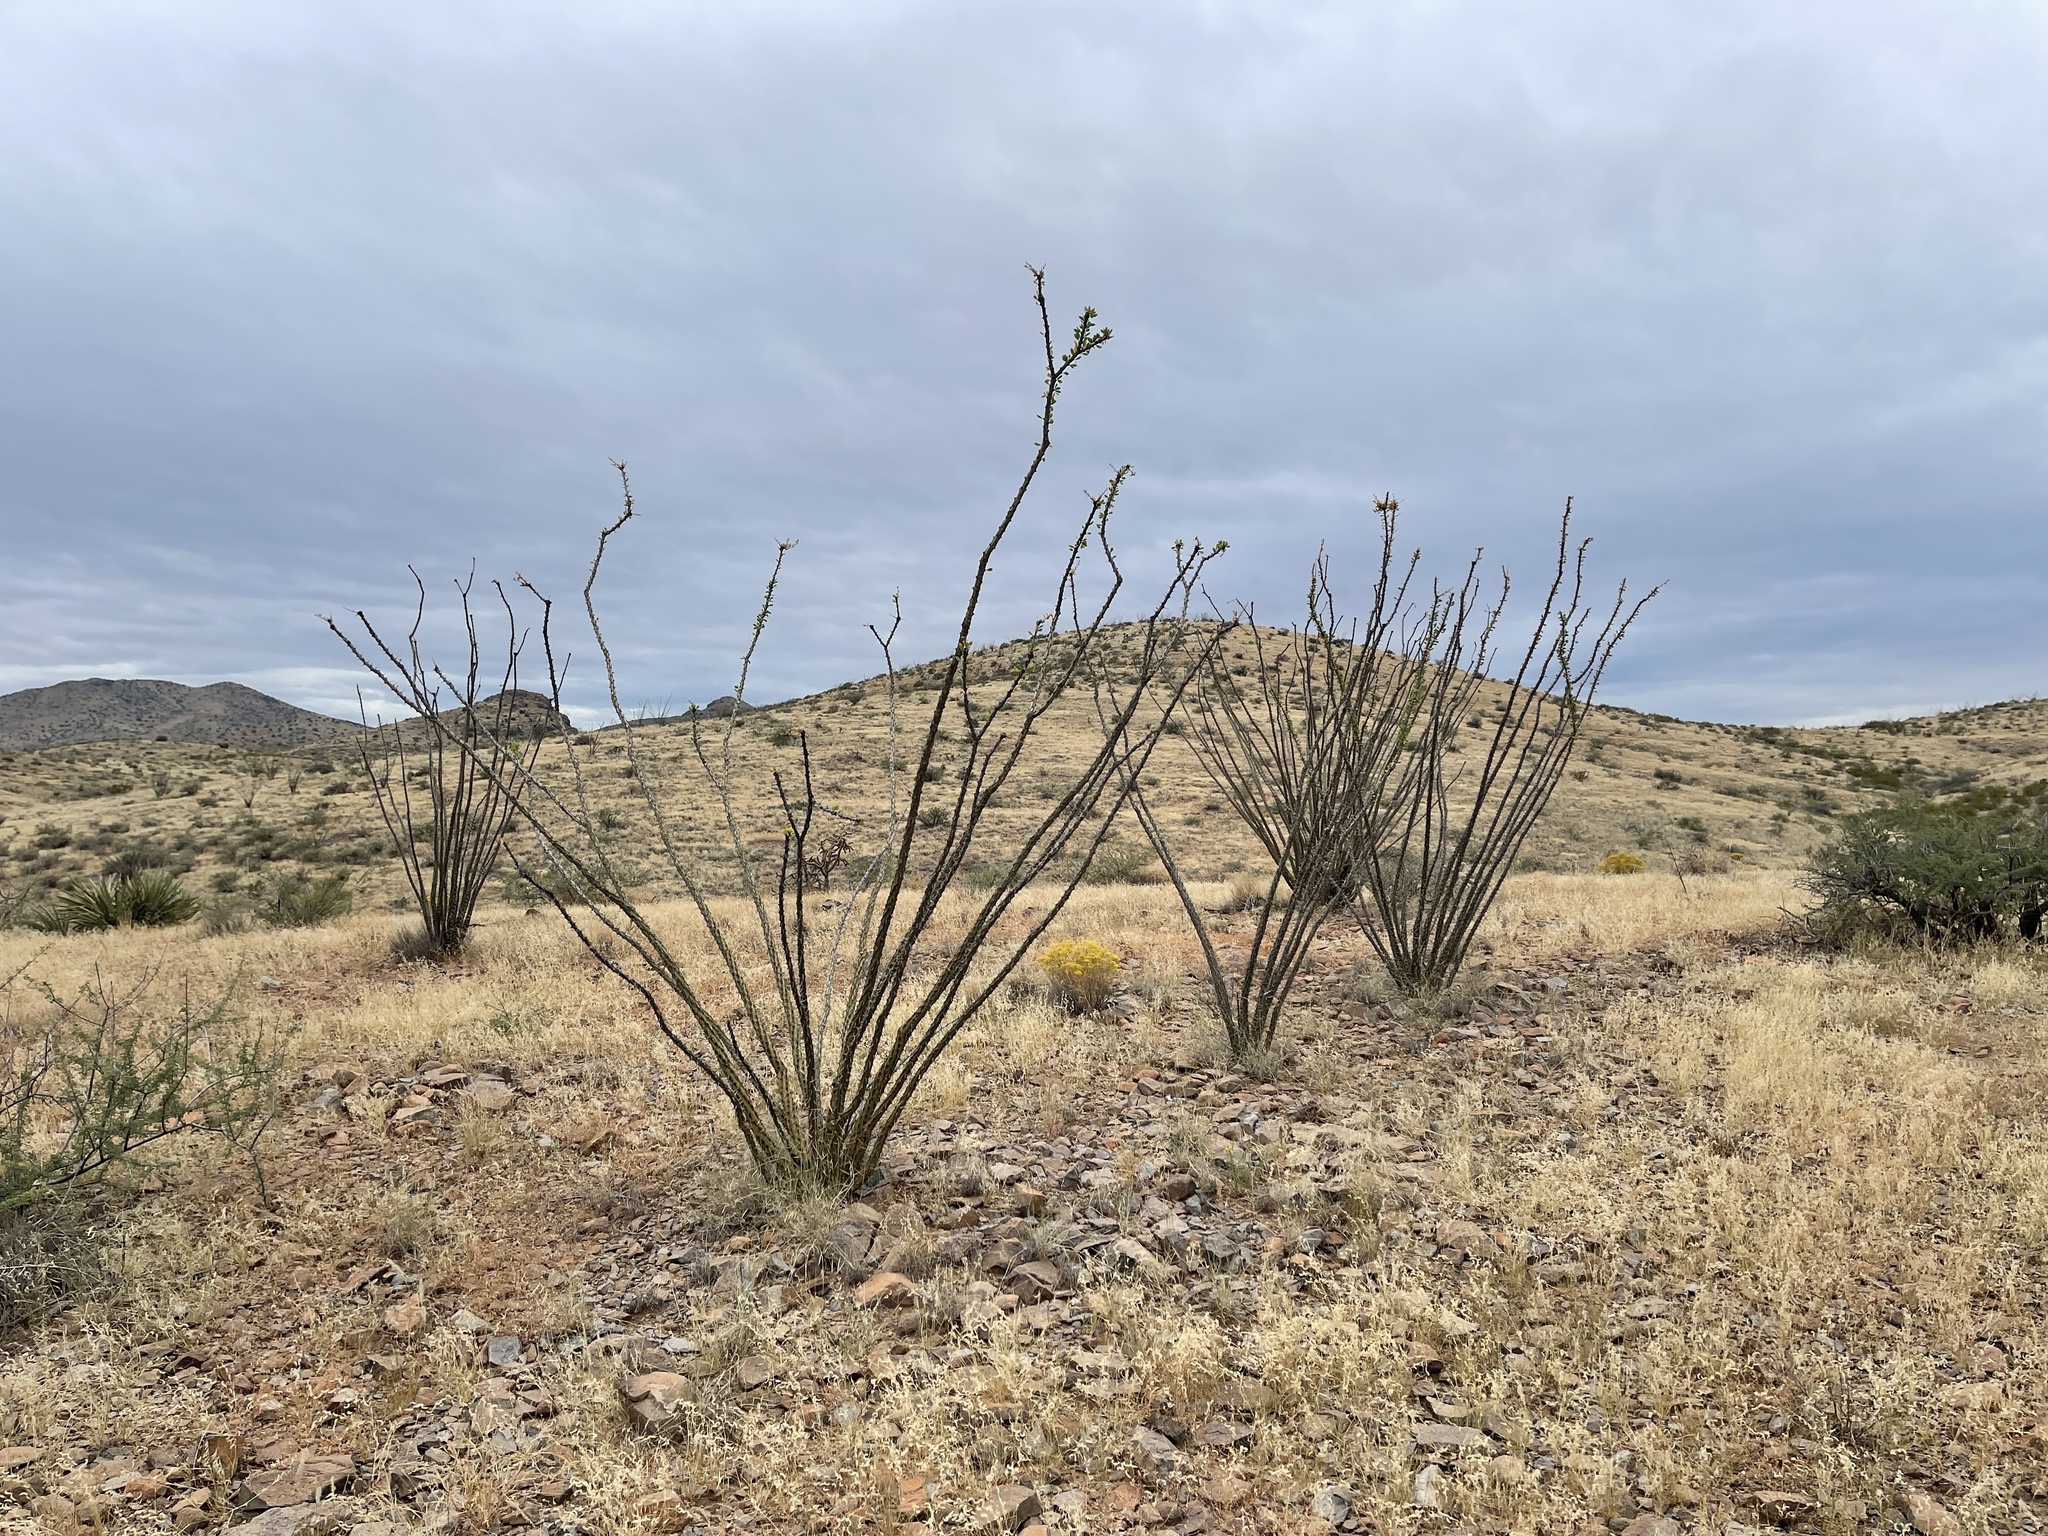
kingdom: Plantae
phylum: Tracheophyta
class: Magnoliopsida
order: Ericales
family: Fouquieriaceae
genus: Fouquieria
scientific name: Fouquieria splendens
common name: Vine-cactus
